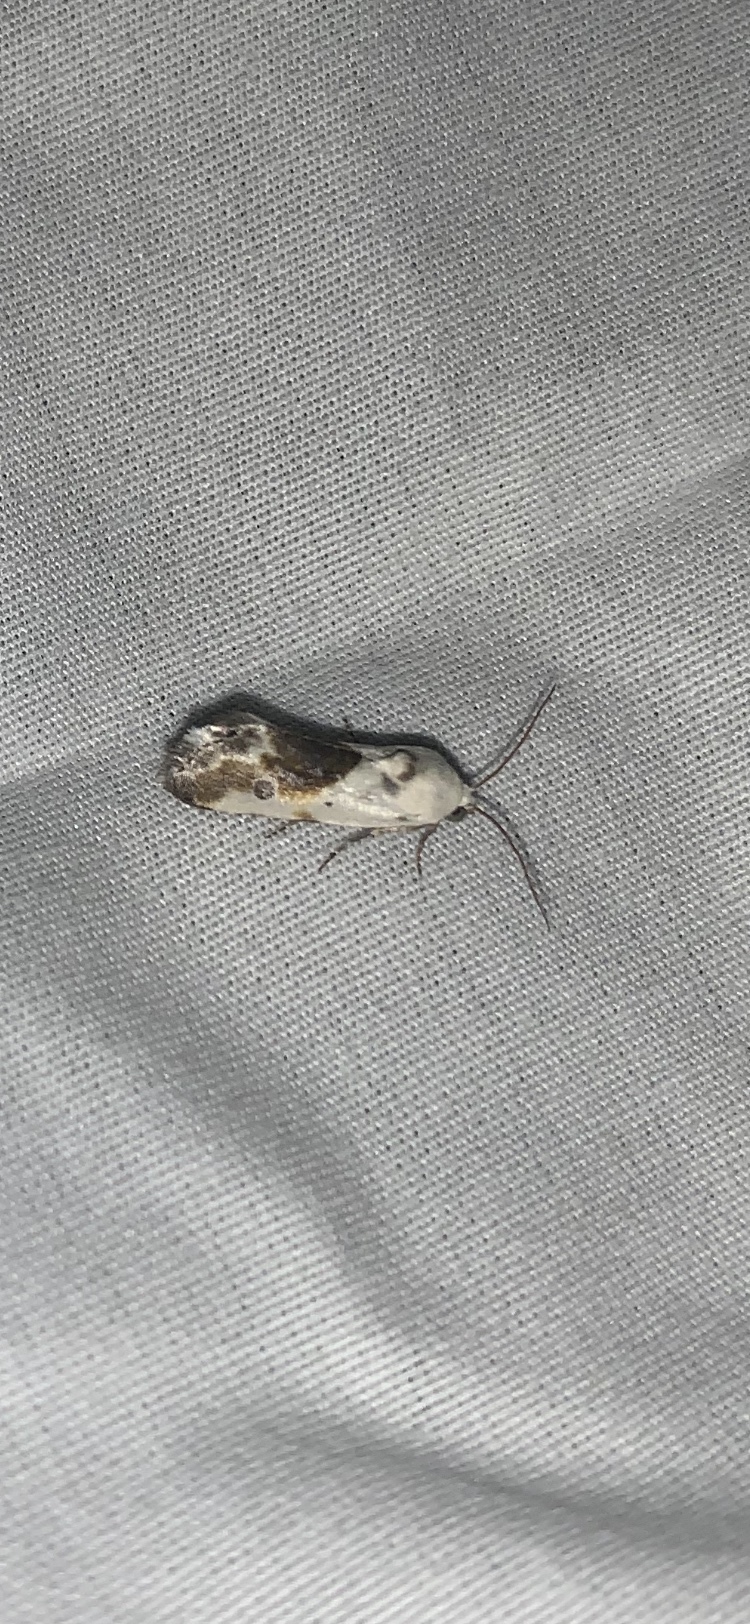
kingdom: Animalia
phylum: Arthropoda
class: Insecta
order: Lepidoptera
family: Noctuidae
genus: Acontia
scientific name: Acontia candefacta
